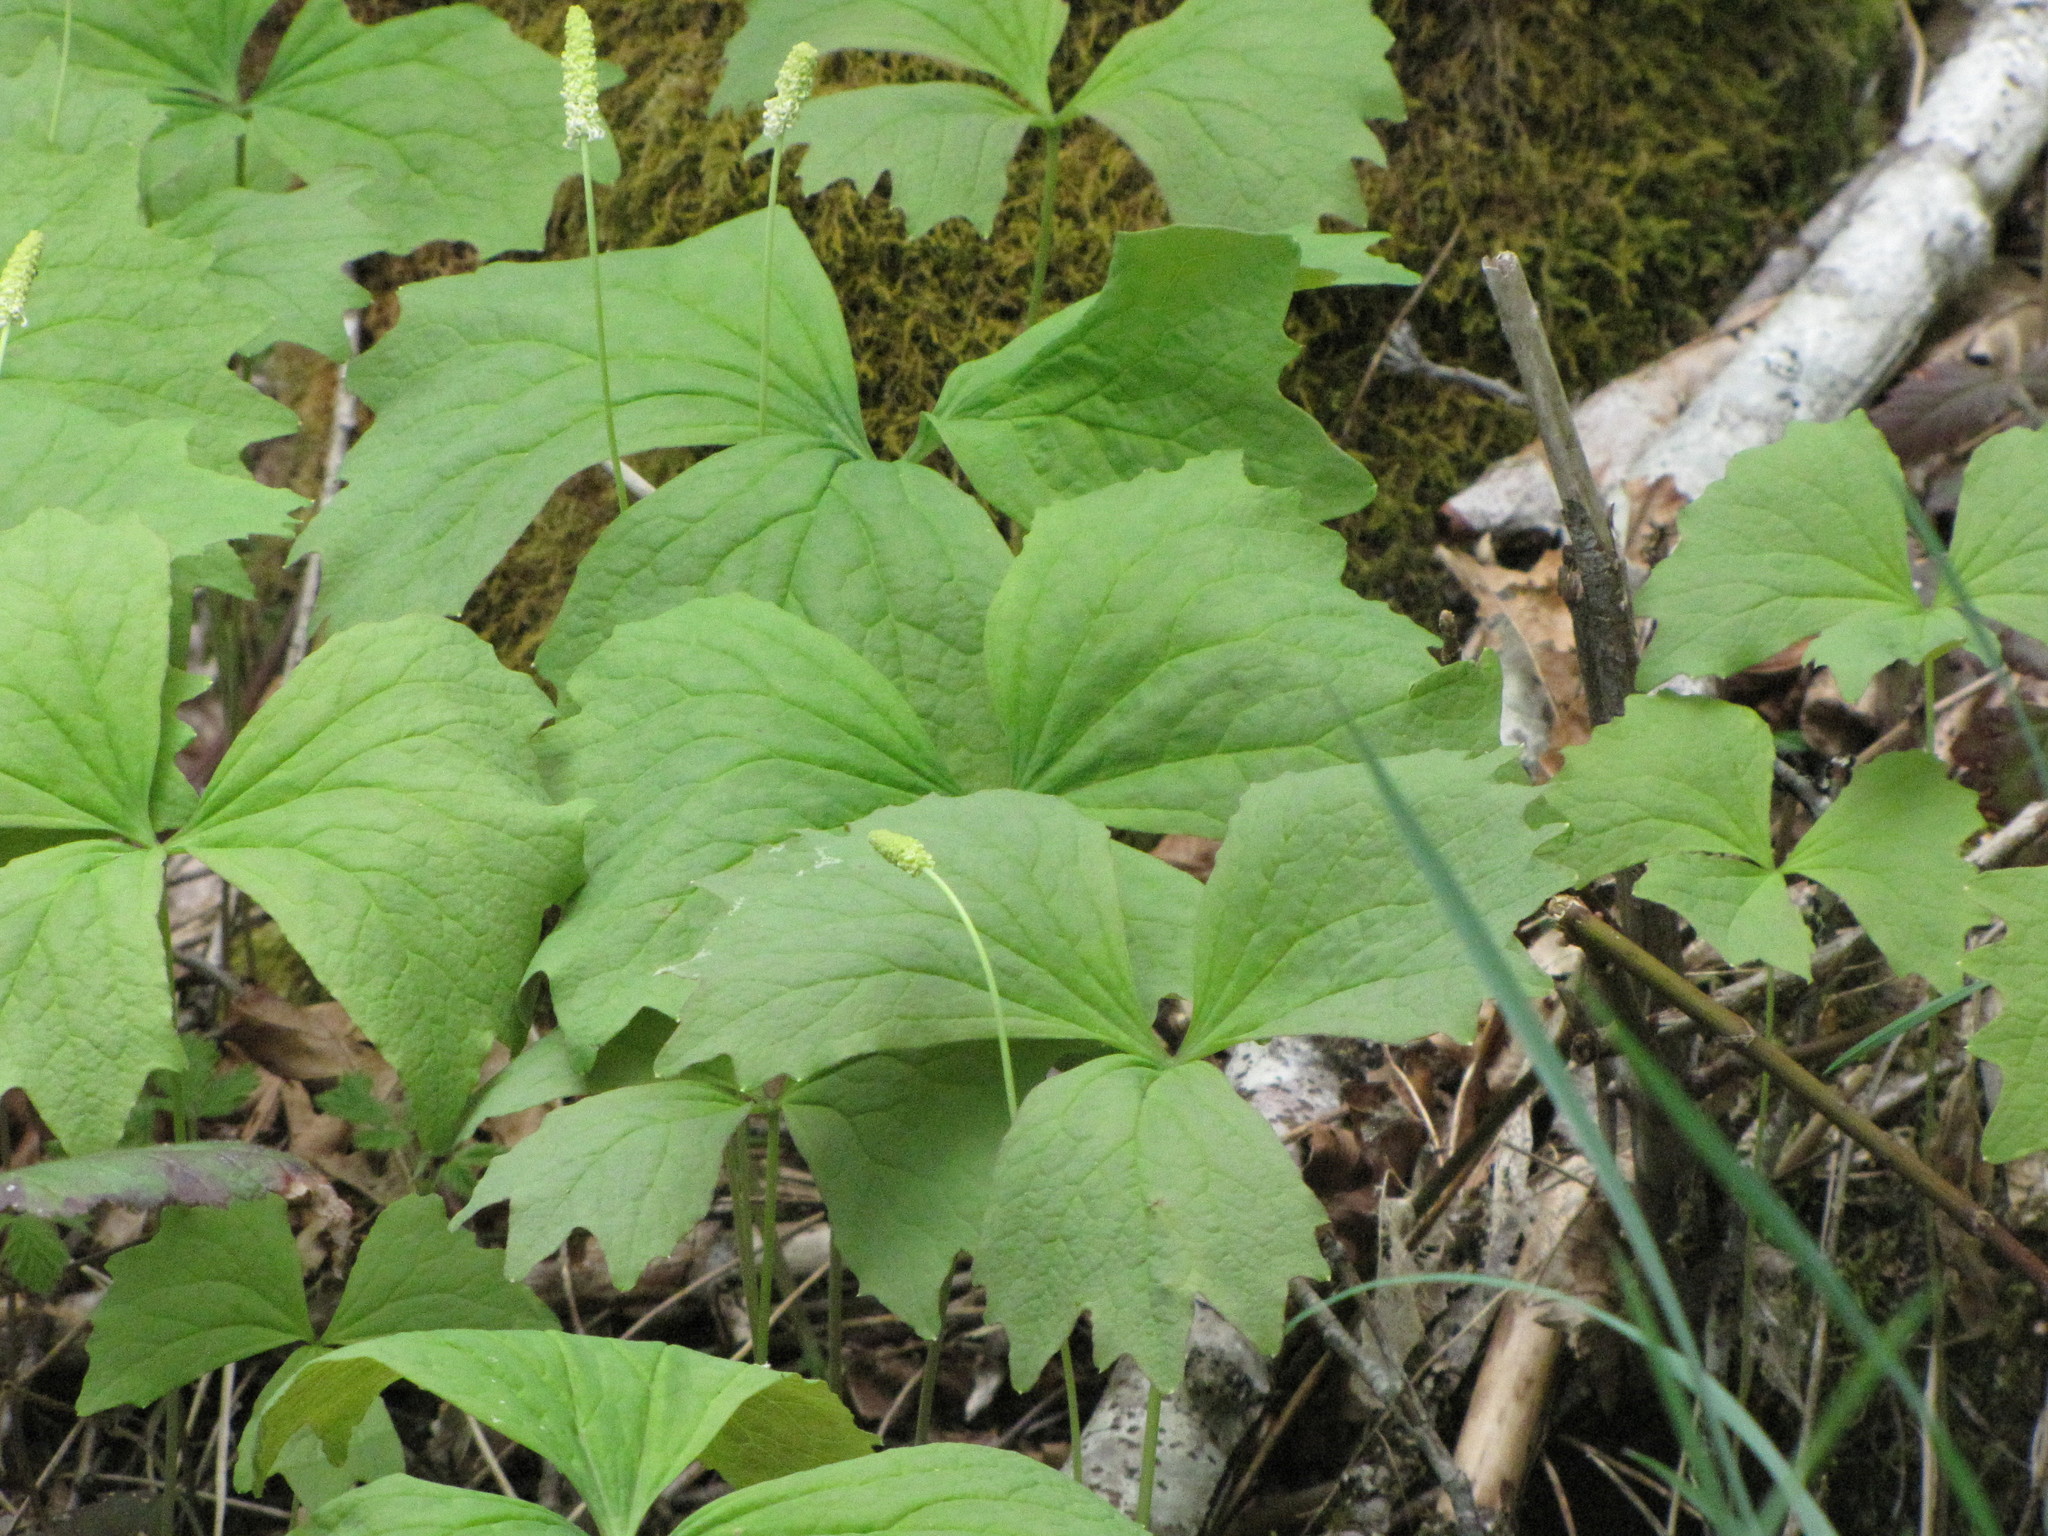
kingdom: Plantae
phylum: Tracheophyta
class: Magnoliopsida
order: Ranunculales
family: Berberidaceae
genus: Achlys
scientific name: Achlys triphylla
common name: Vanilla-leaf
